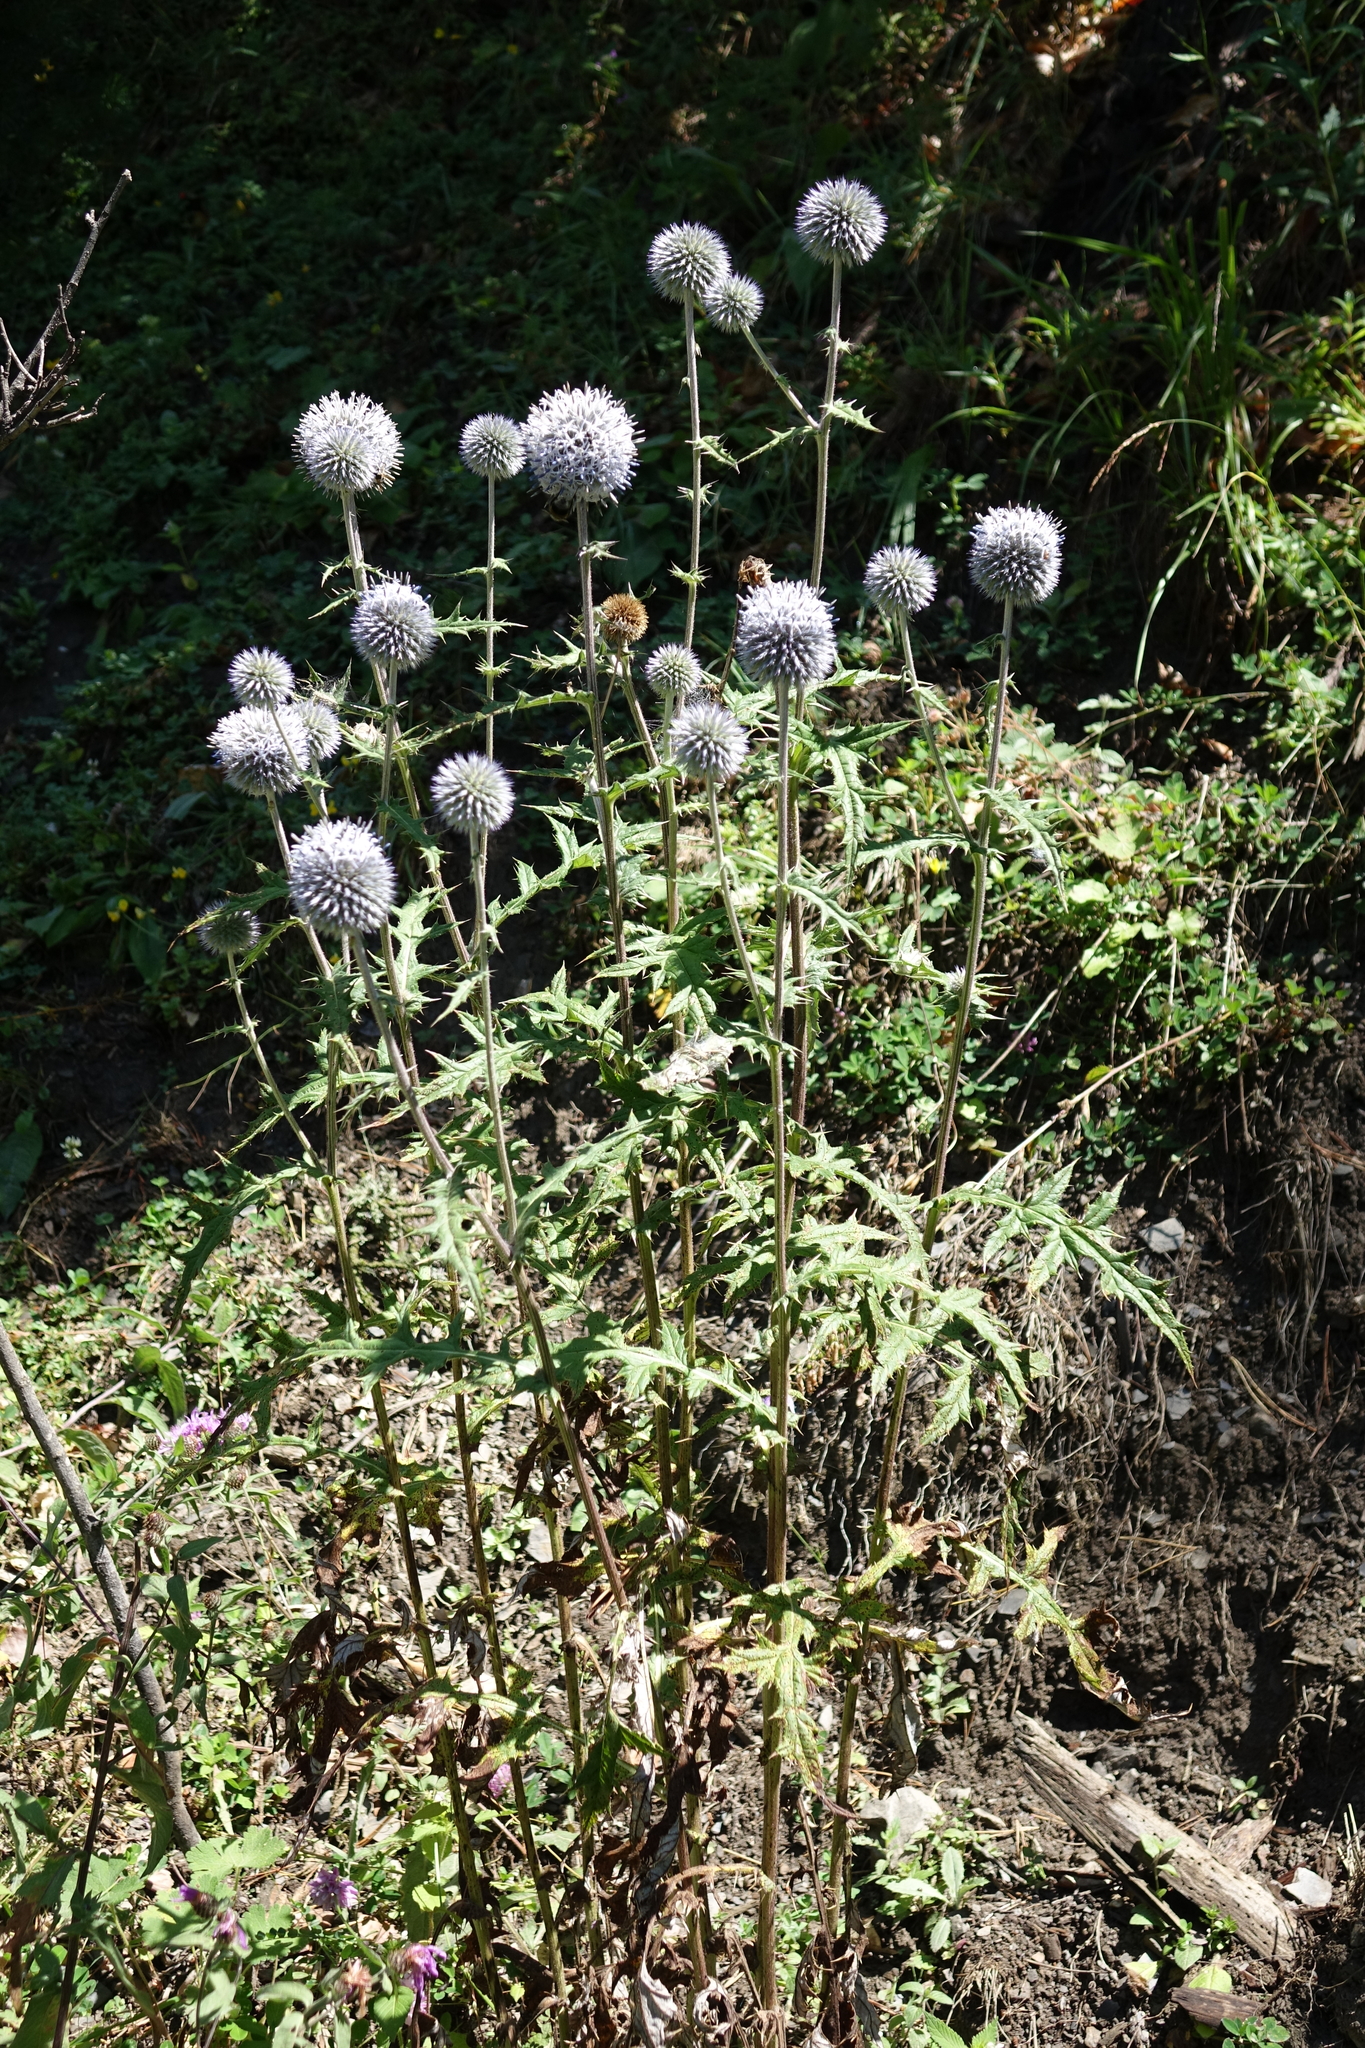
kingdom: Plantae
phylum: Tracheophyta
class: Magnoliopsida
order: Asterales
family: Asteraceae
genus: Echinops
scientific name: Echinops sphaerocephalus
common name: Glandular globe-thistle
